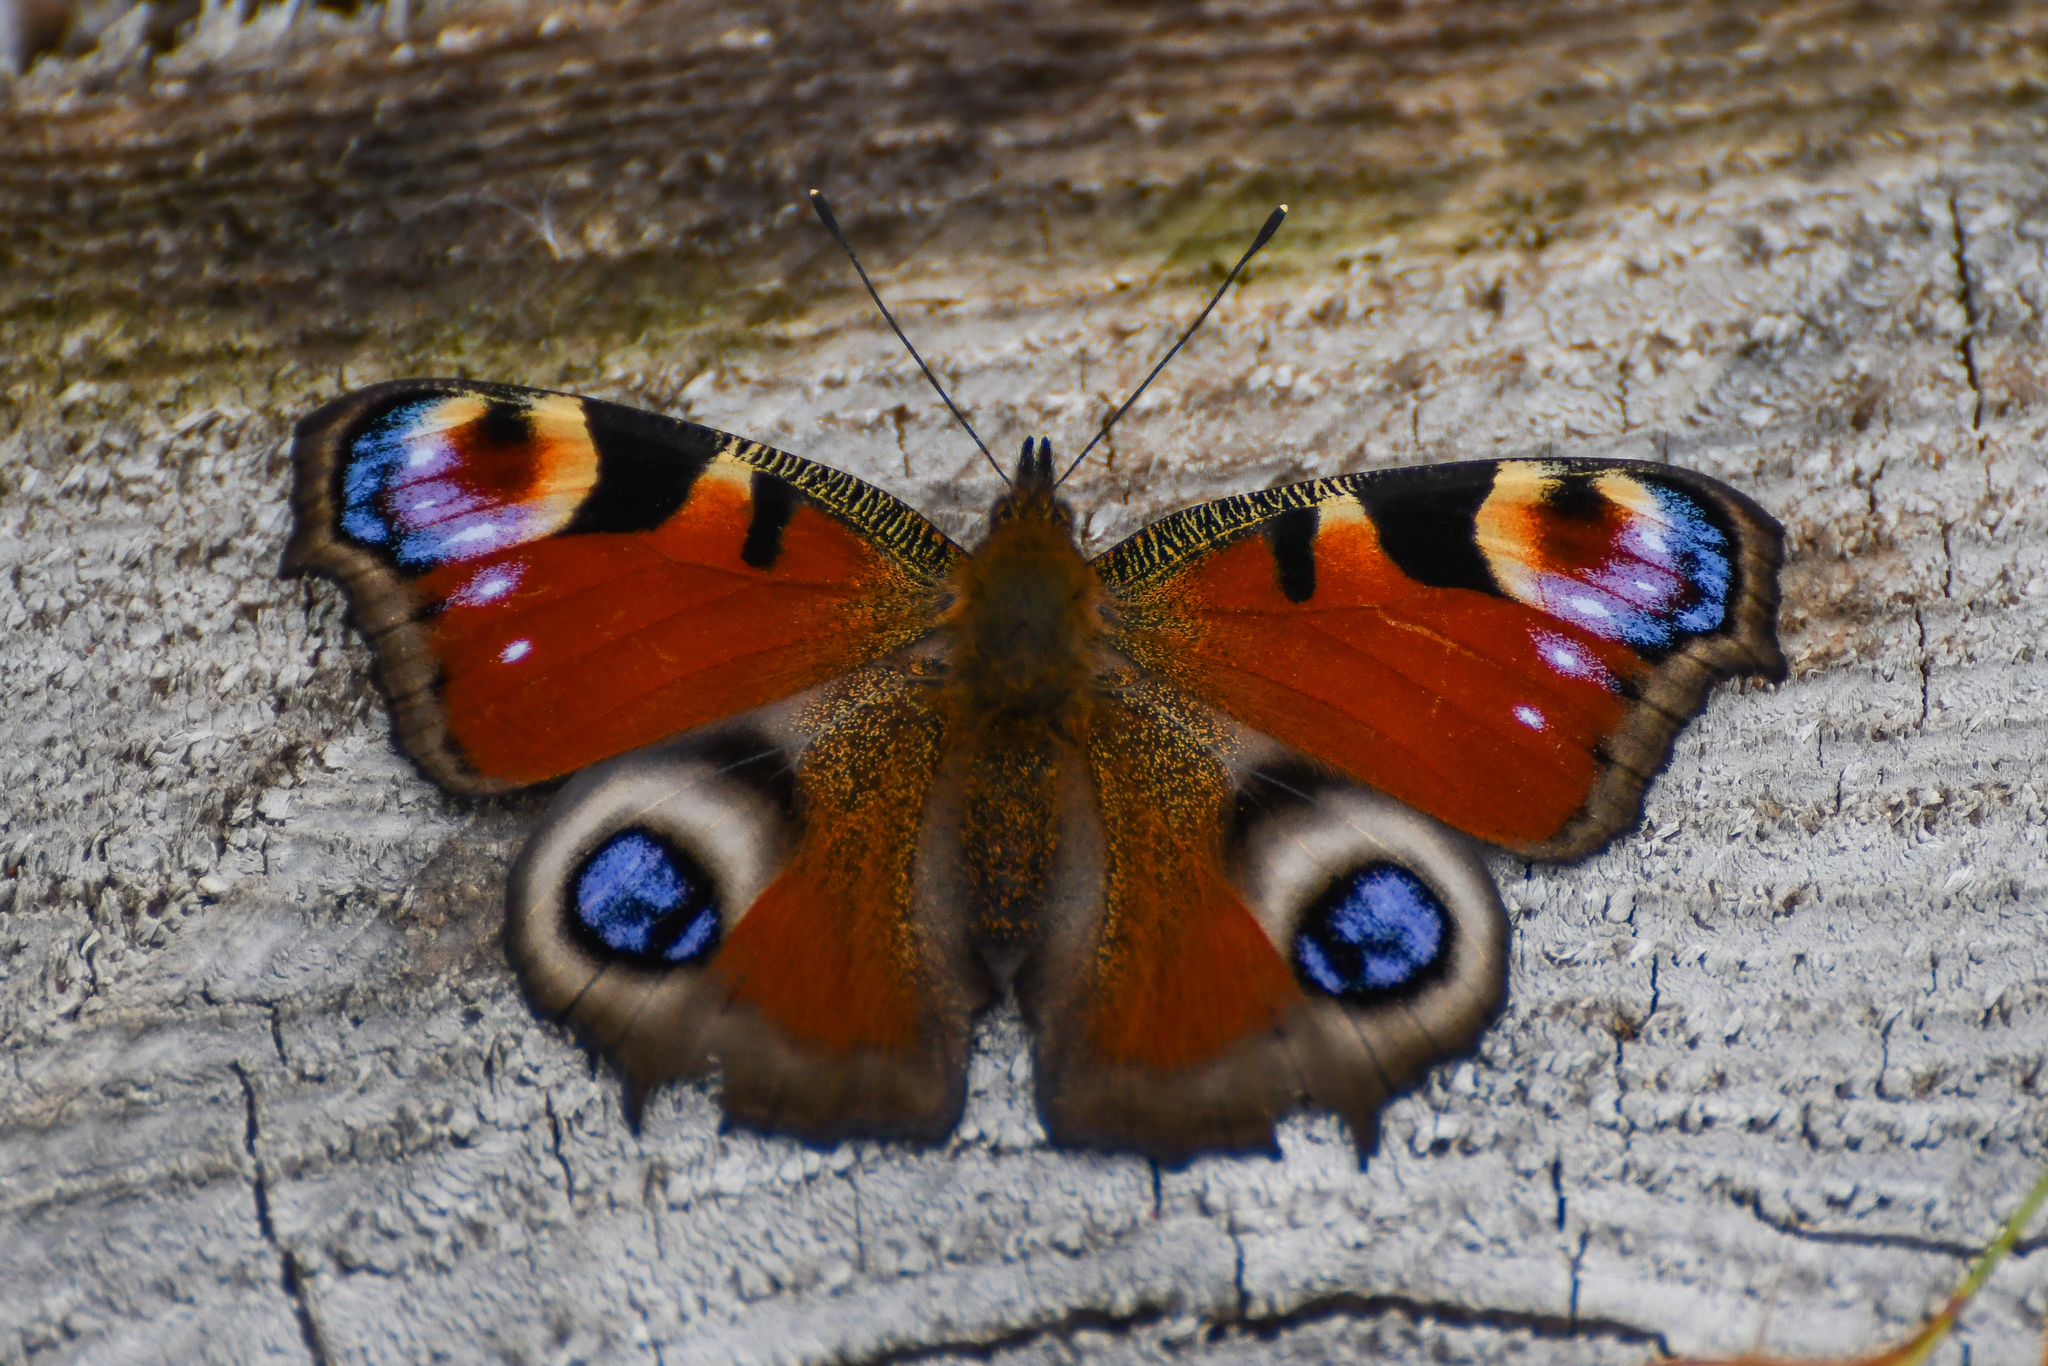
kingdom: Animalia
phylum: Arthropoda
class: Insecta
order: Lepidoptera
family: Nymphalidae
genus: Aglais
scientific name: Aglais io
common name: Peacock
